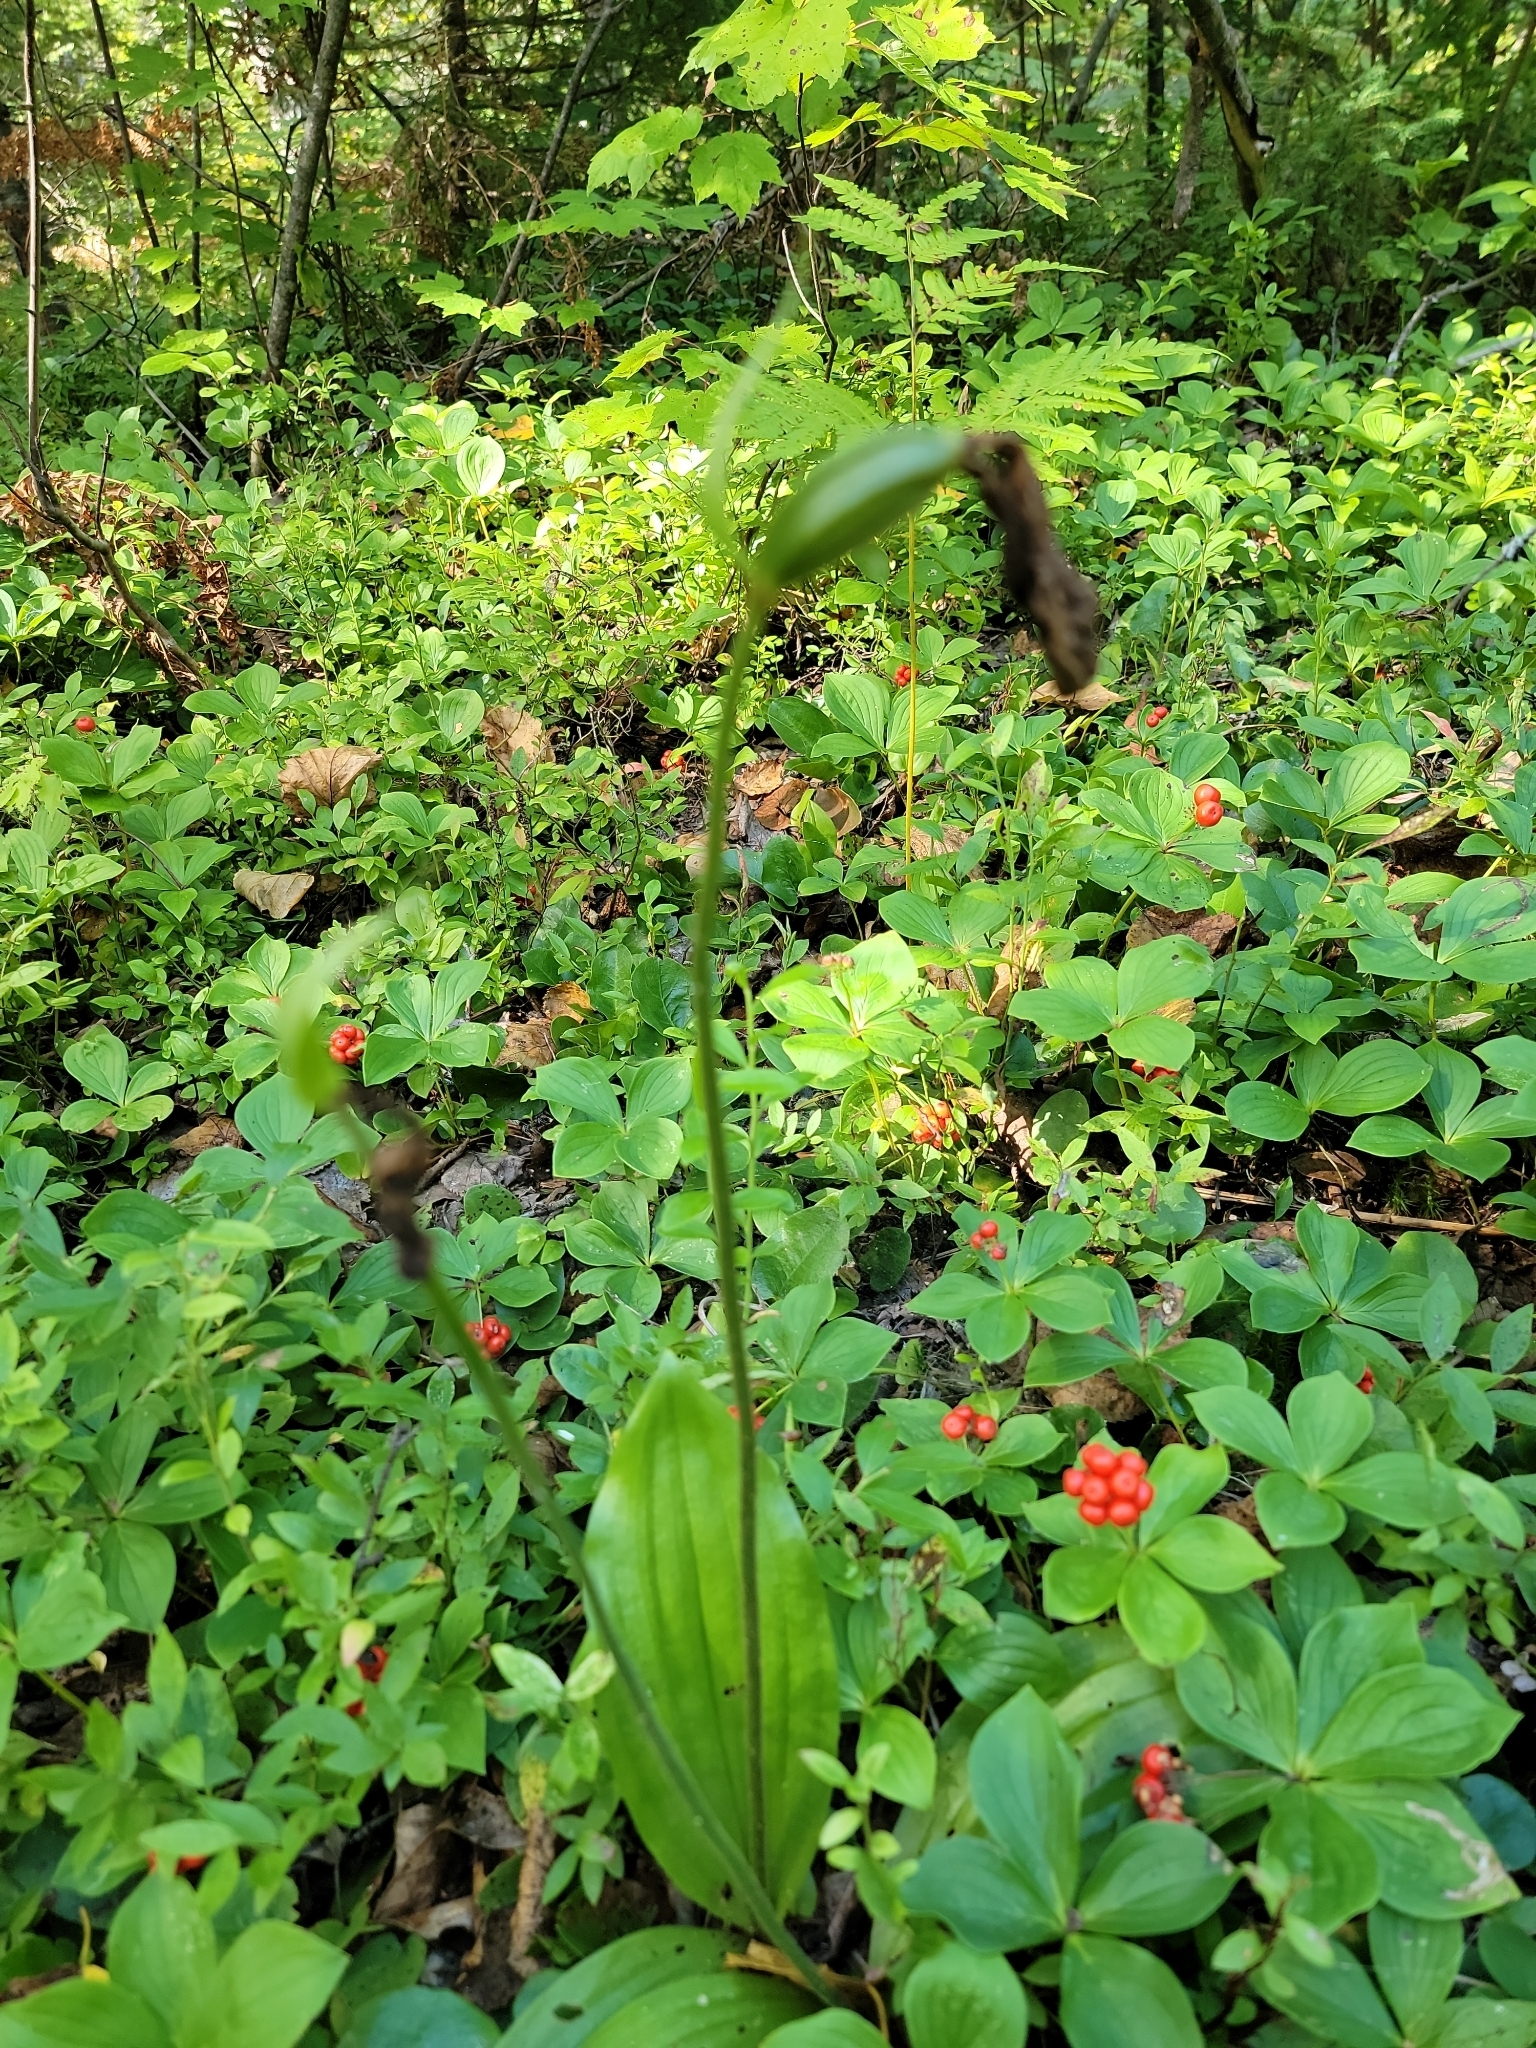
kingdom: Plantae
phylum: Tracheophyta
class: Liliopsida
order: Asparagales
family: Orchidaceae
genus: Cypripedium
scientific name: Cypripedium acaule
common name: Pink lady's-slipper
